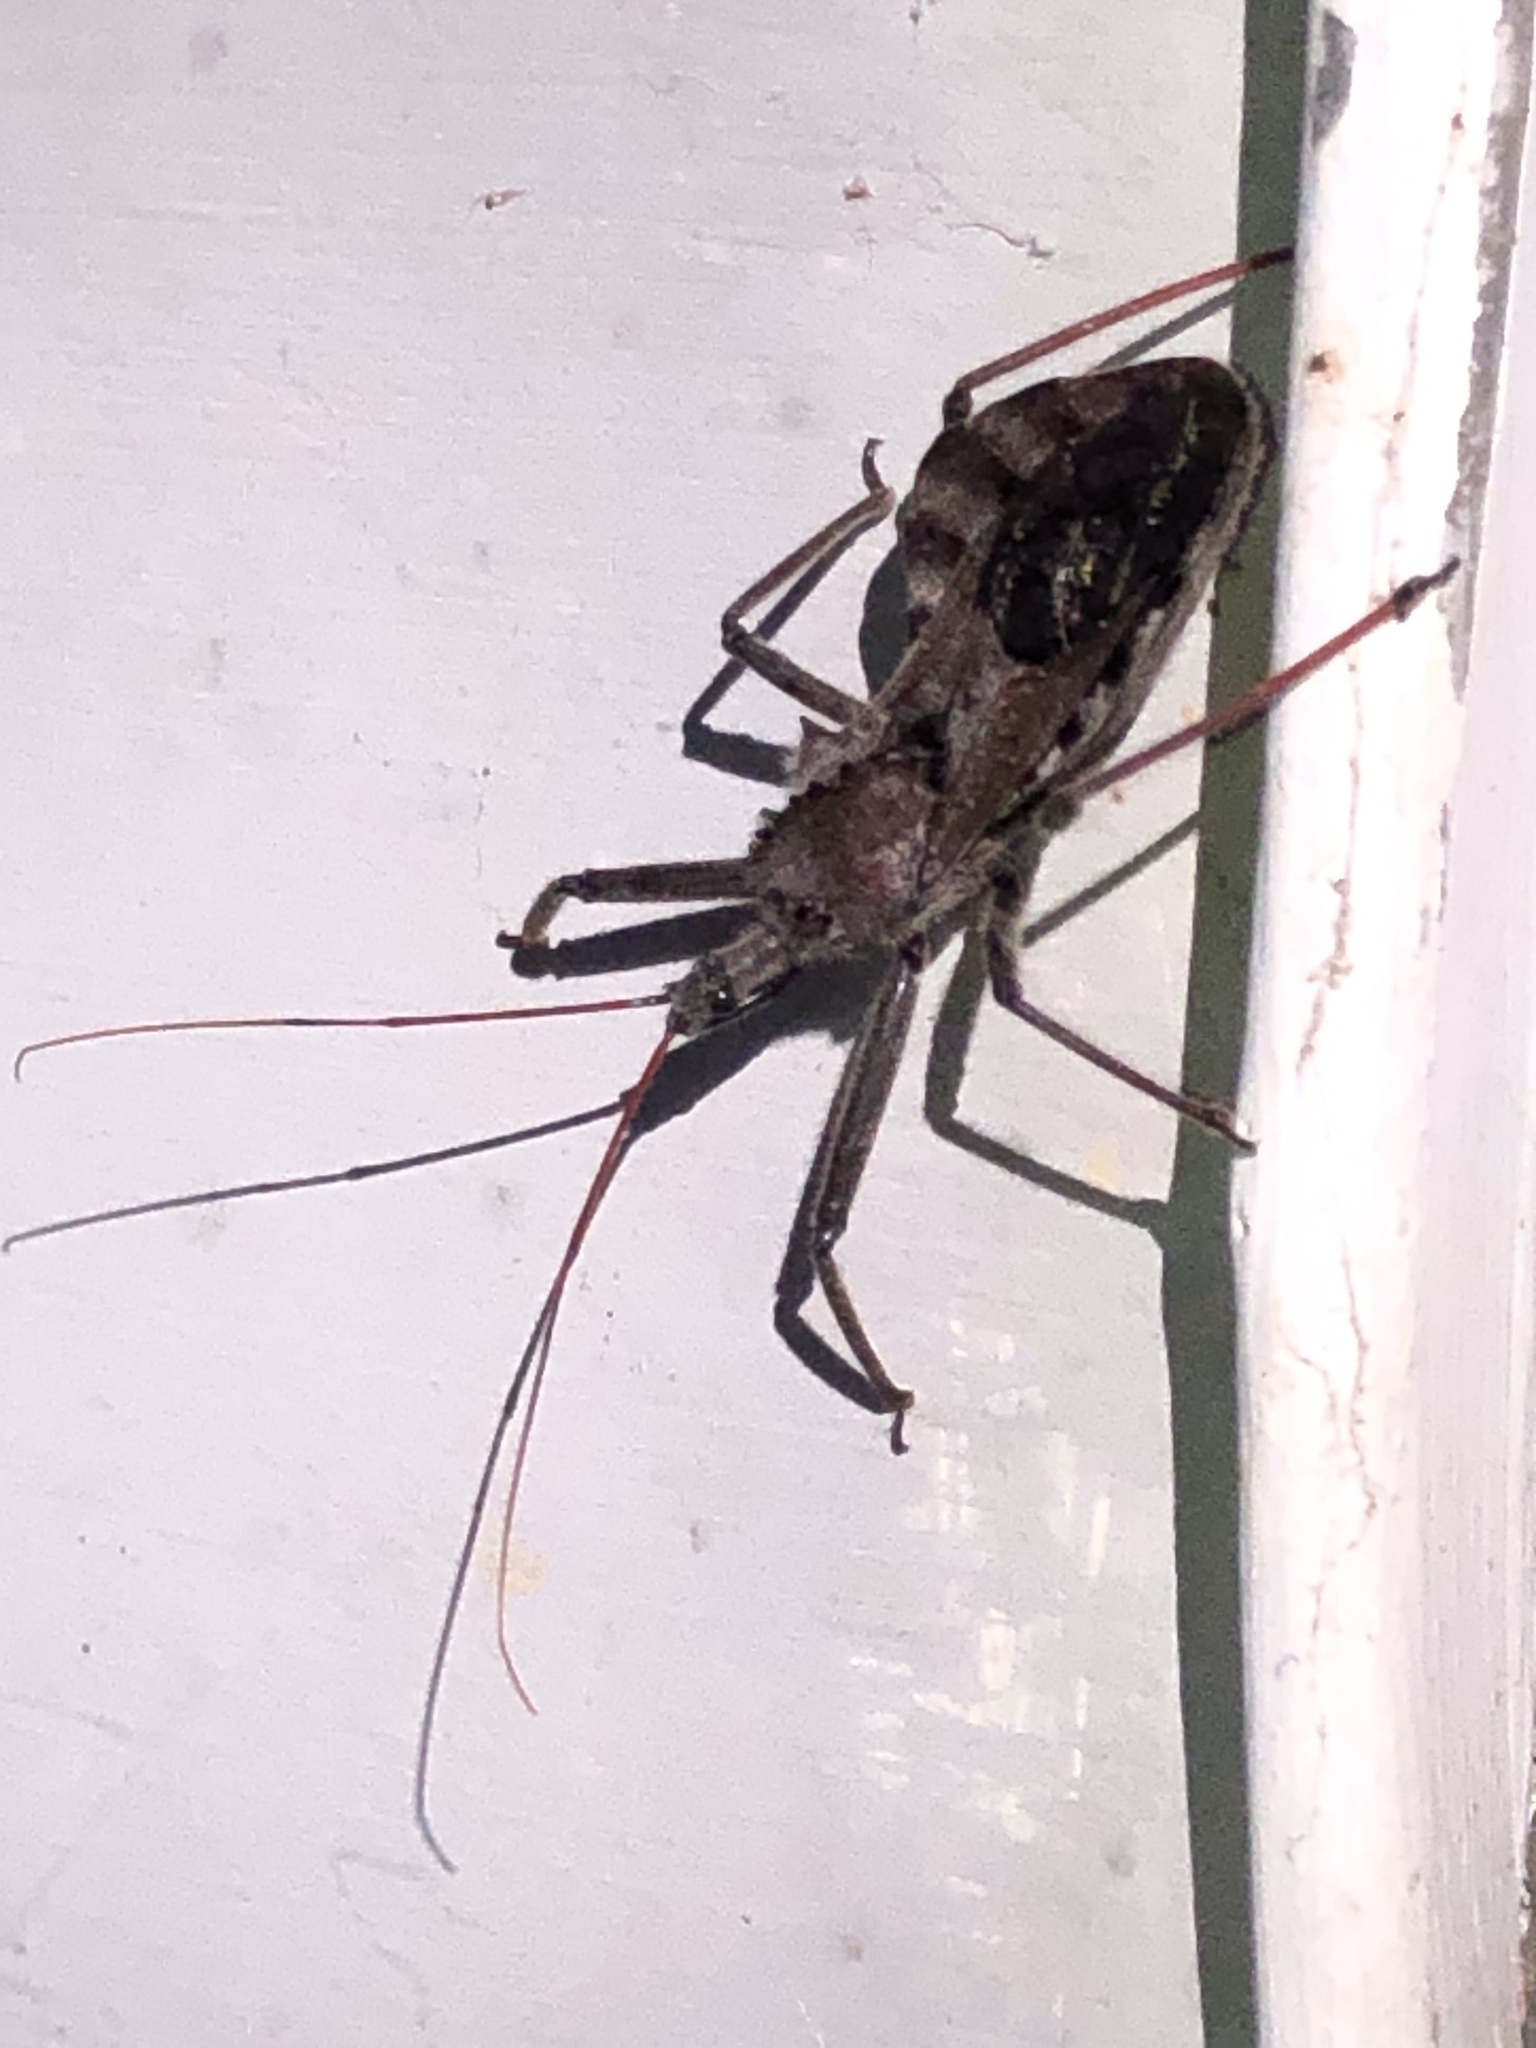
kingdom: Animalia
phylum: Arthropoda
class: Insecta
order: Hemiptera
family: Reduviidae
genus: Arilus
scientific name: Arilus cristatus
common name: North american wheel bug
